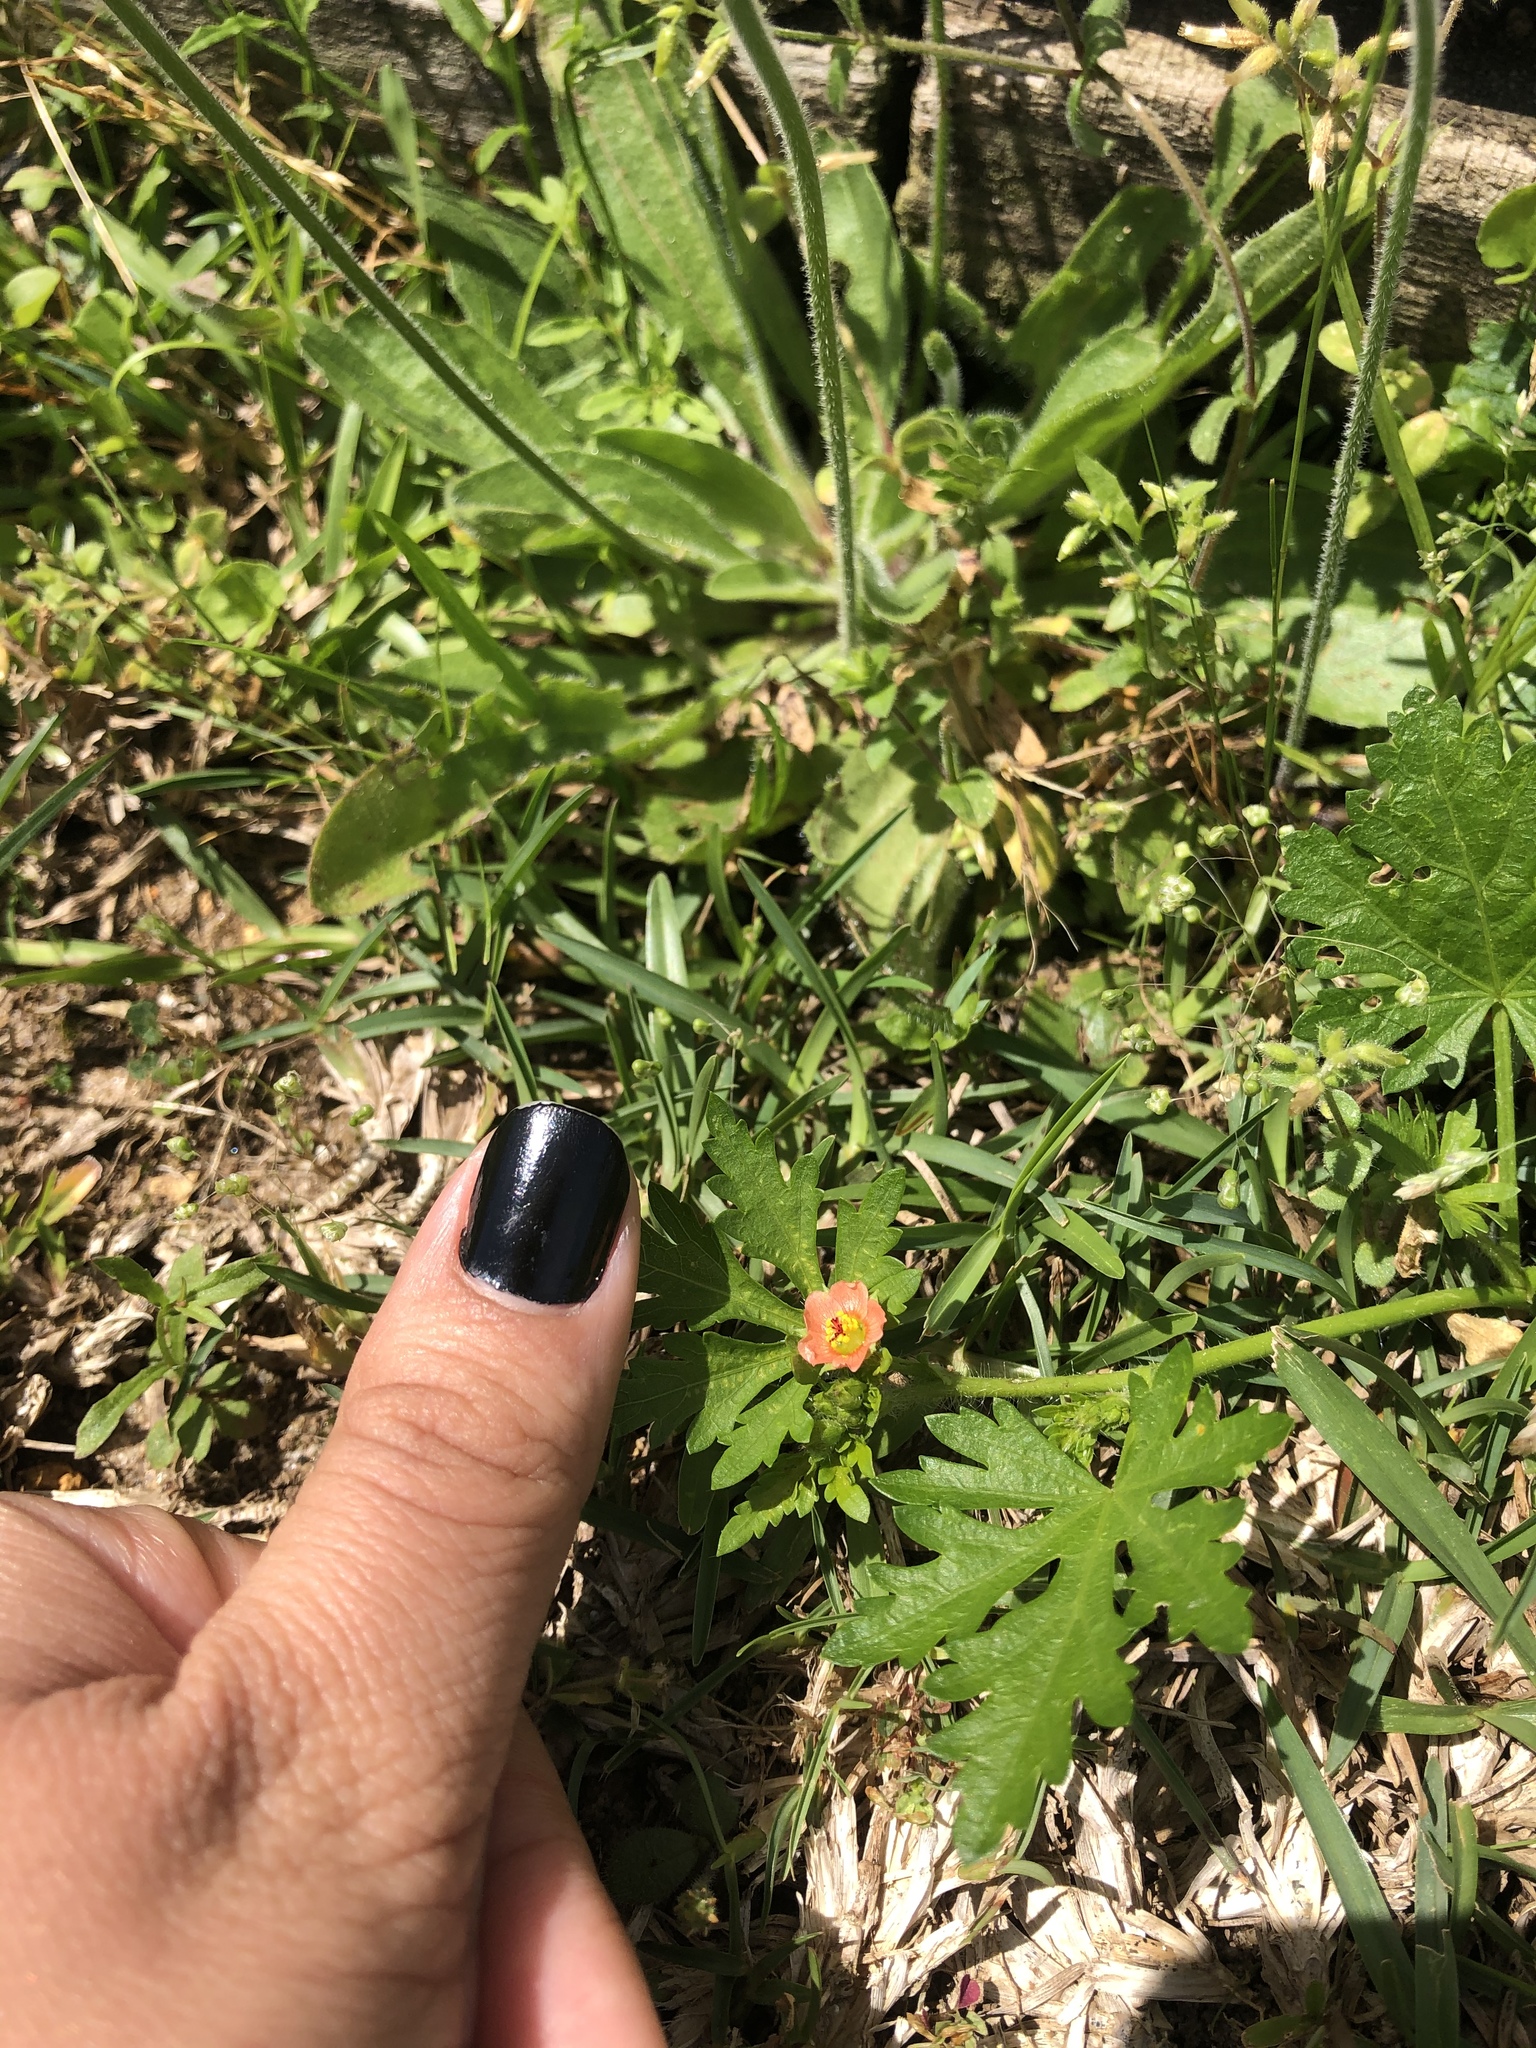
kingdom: Plantae
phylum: Tracheophyta
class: Magnoliopsida
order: Malvales
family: Malvaceae
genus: Modiola
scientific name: Modiola caroliniana
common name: Carolina bristlemallow
